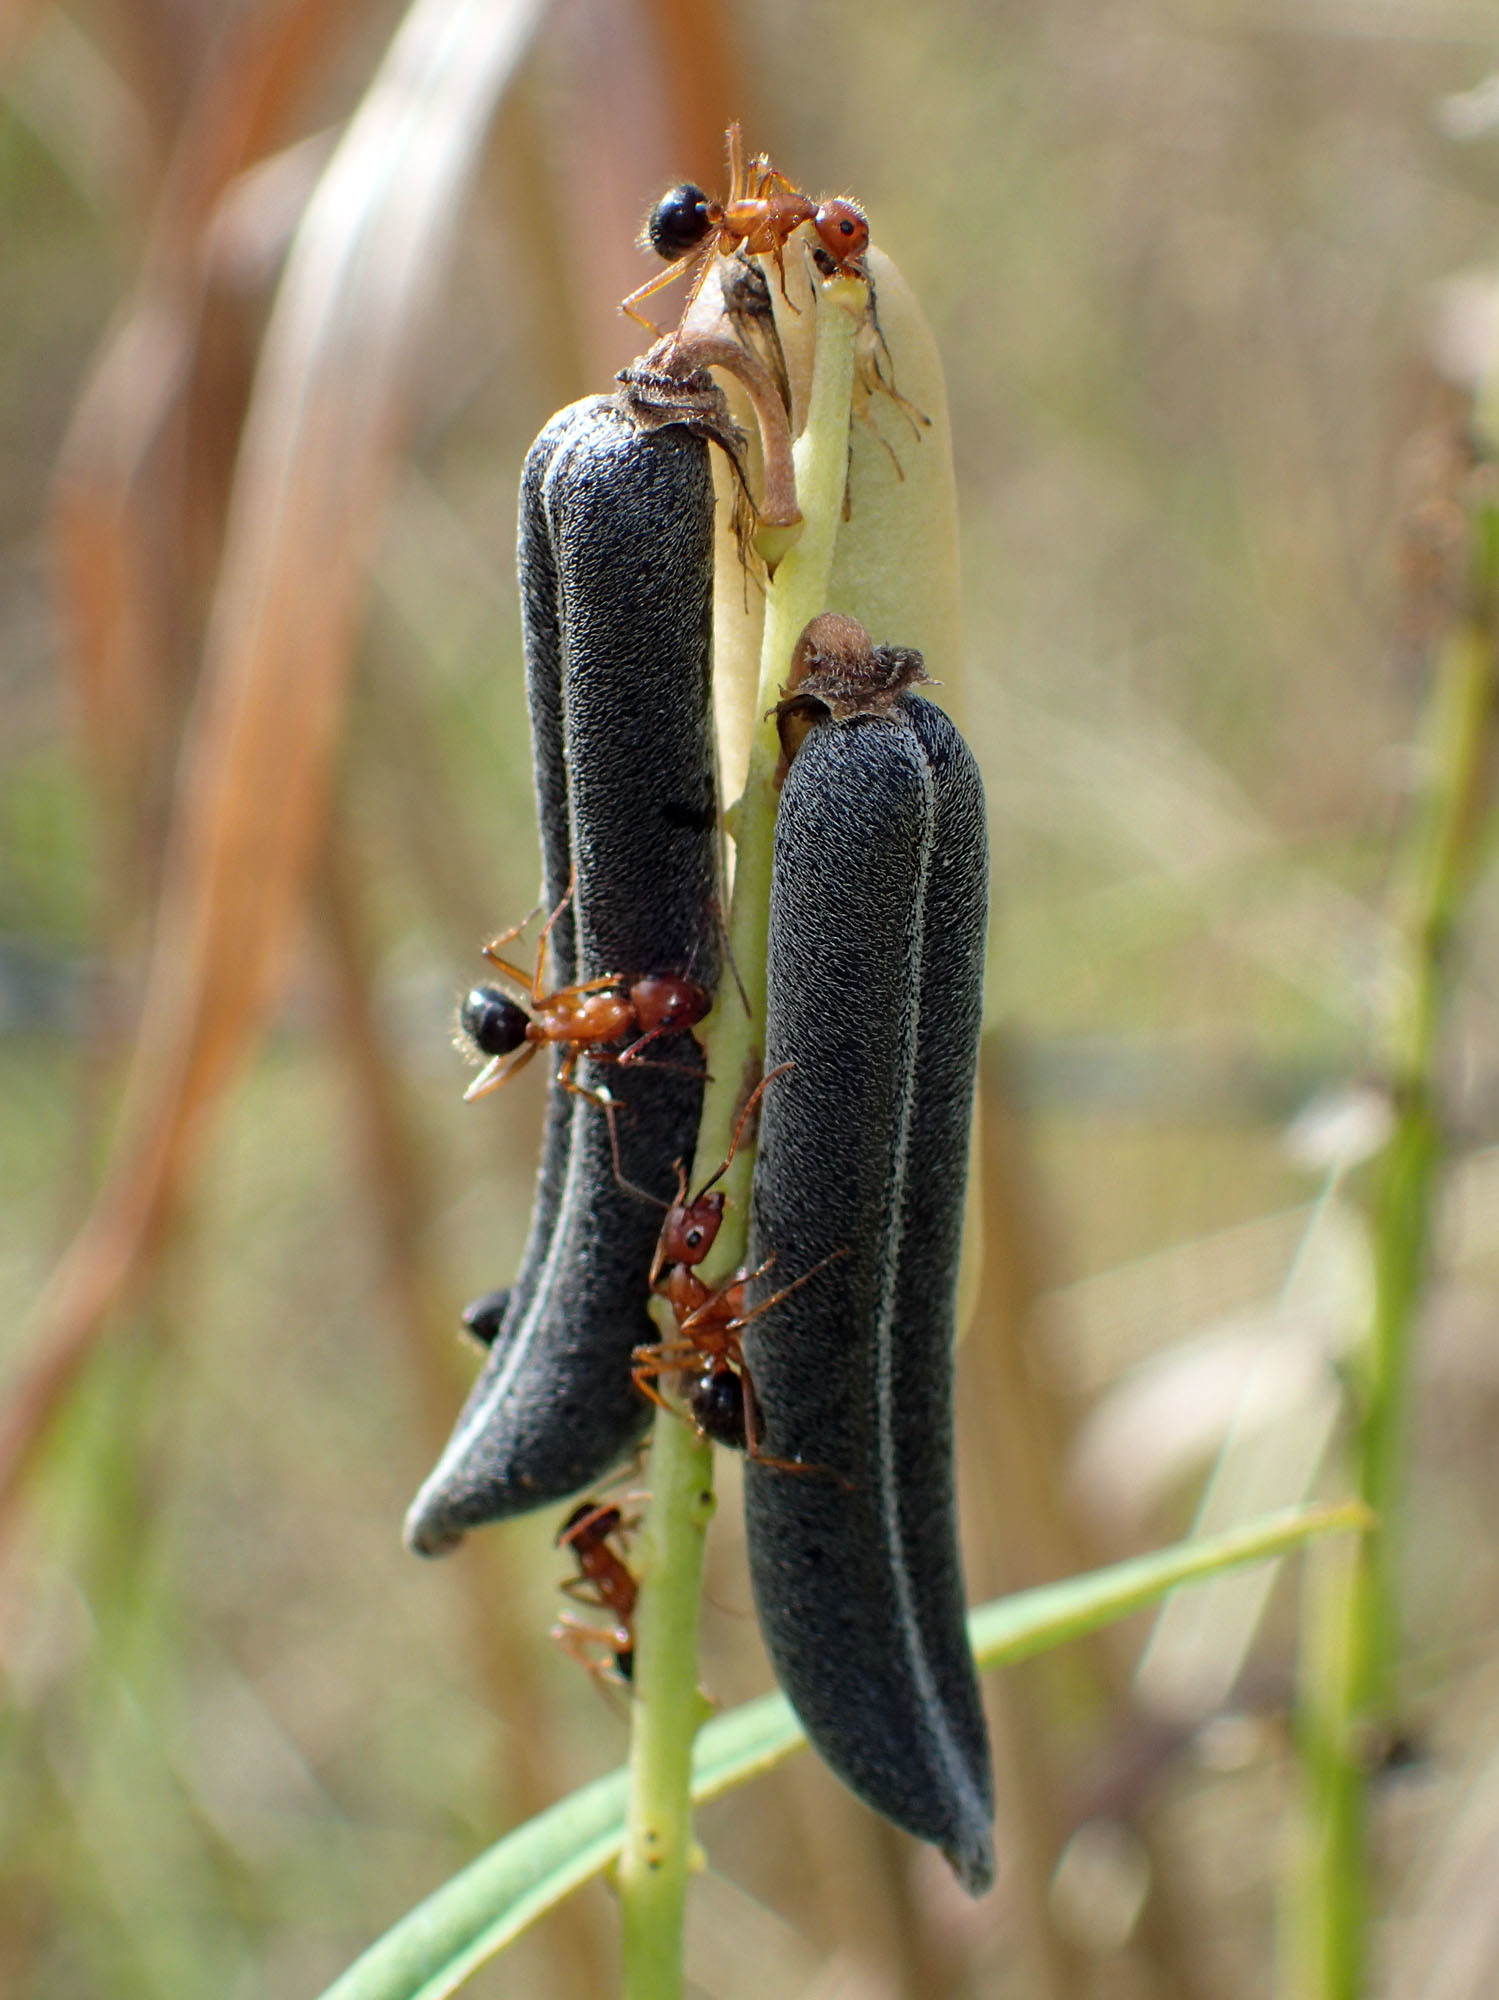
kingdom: Animalia
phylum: Arthropoda
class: Insecta
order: Hymenoptera
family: Formicidae
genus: Camponotus
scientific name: Camponotus floridanus
